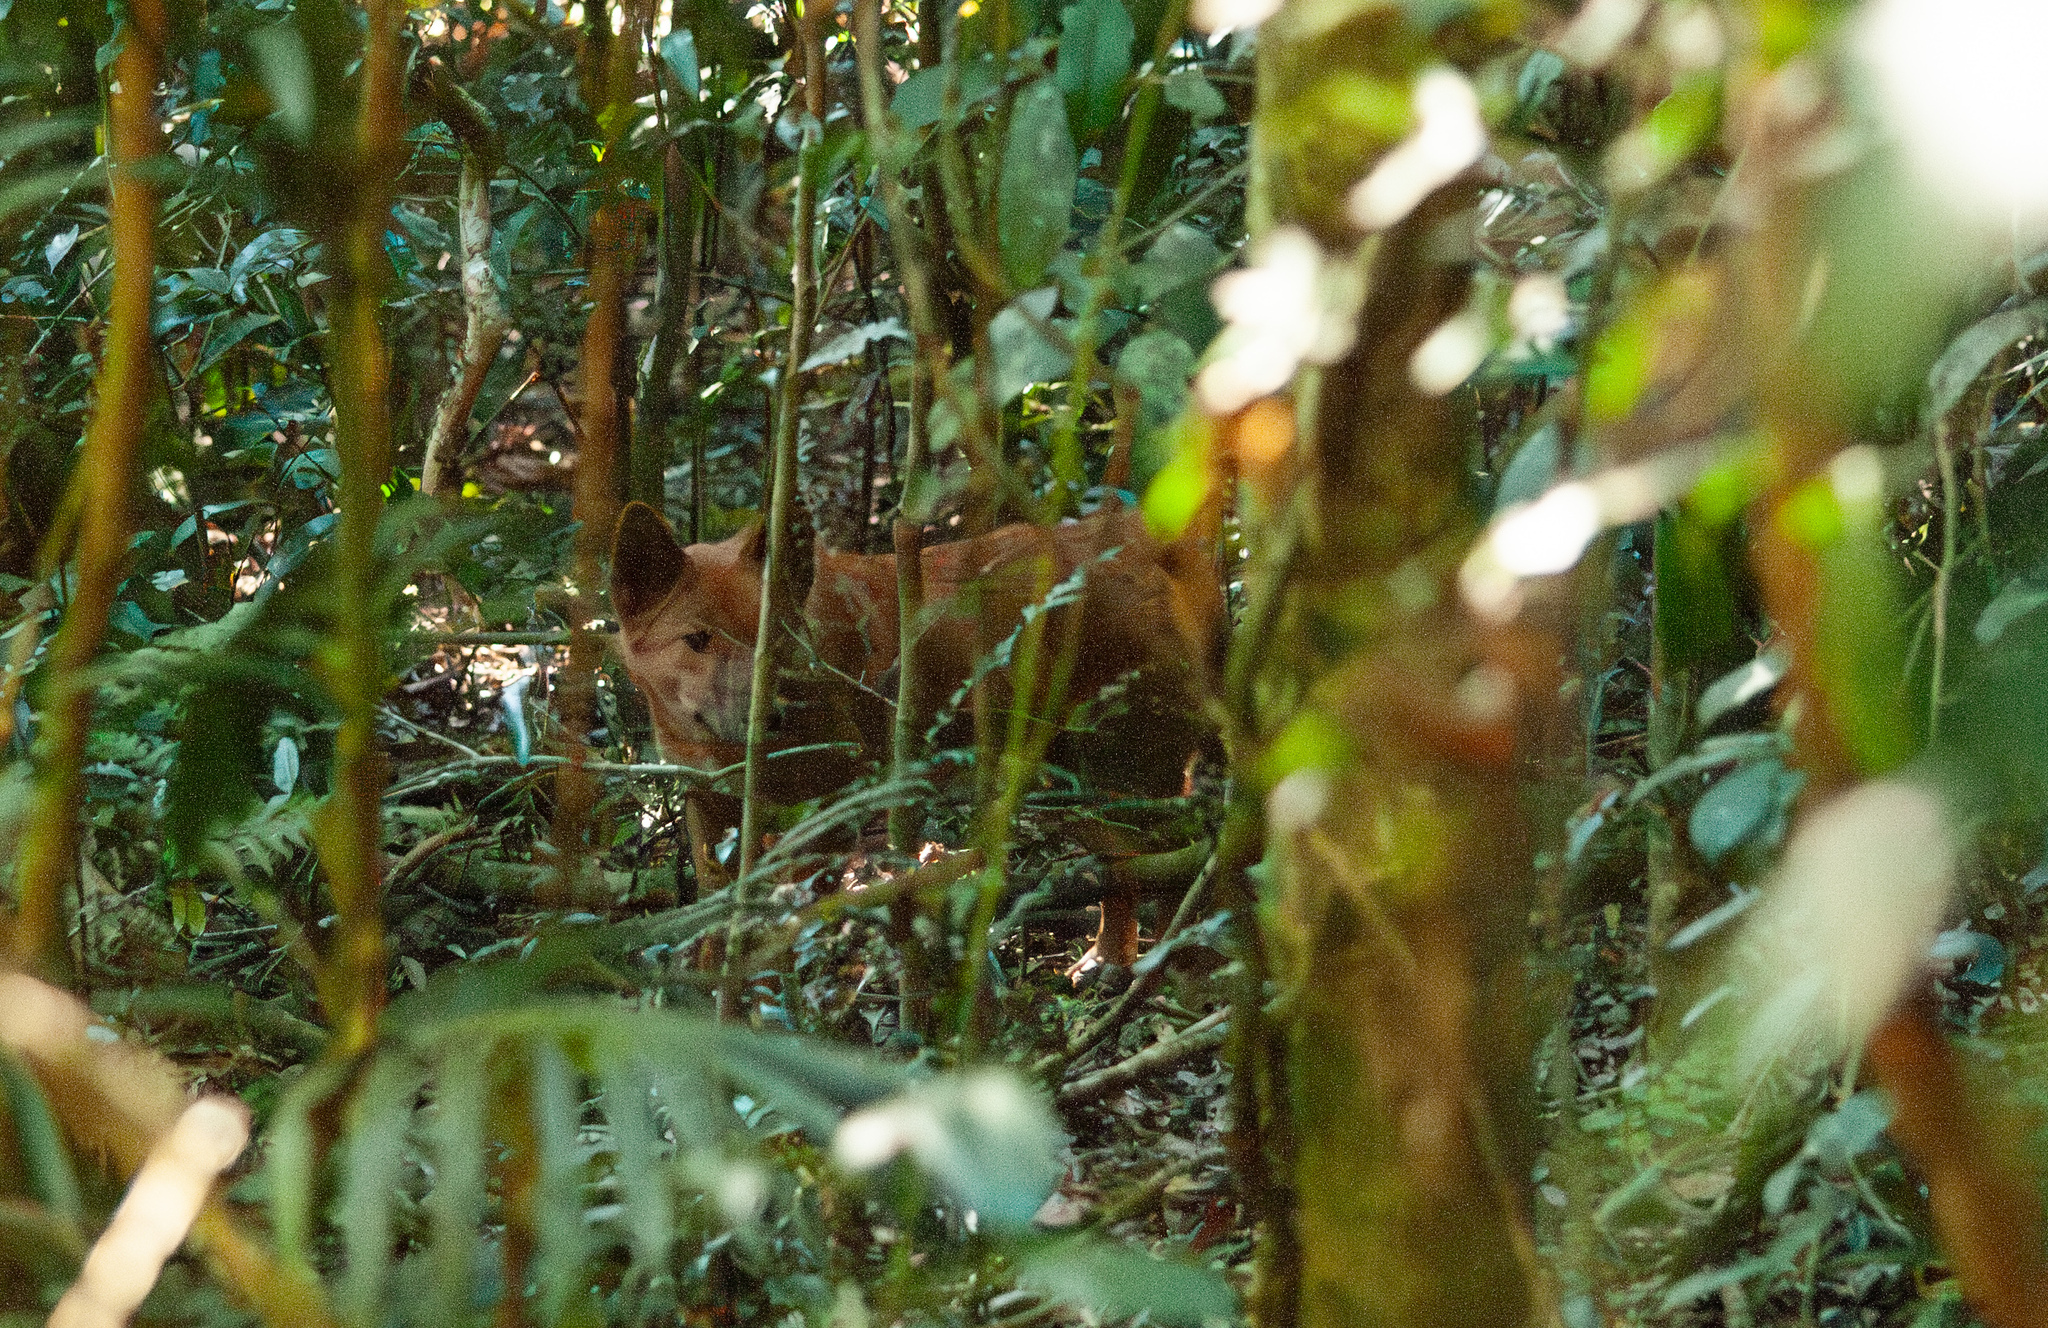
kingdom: Animalia
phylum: Chordata
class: Mammalia
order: Carnivora
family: Canidae
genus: Canis
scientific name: Canis lupus
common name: Gray wolf
